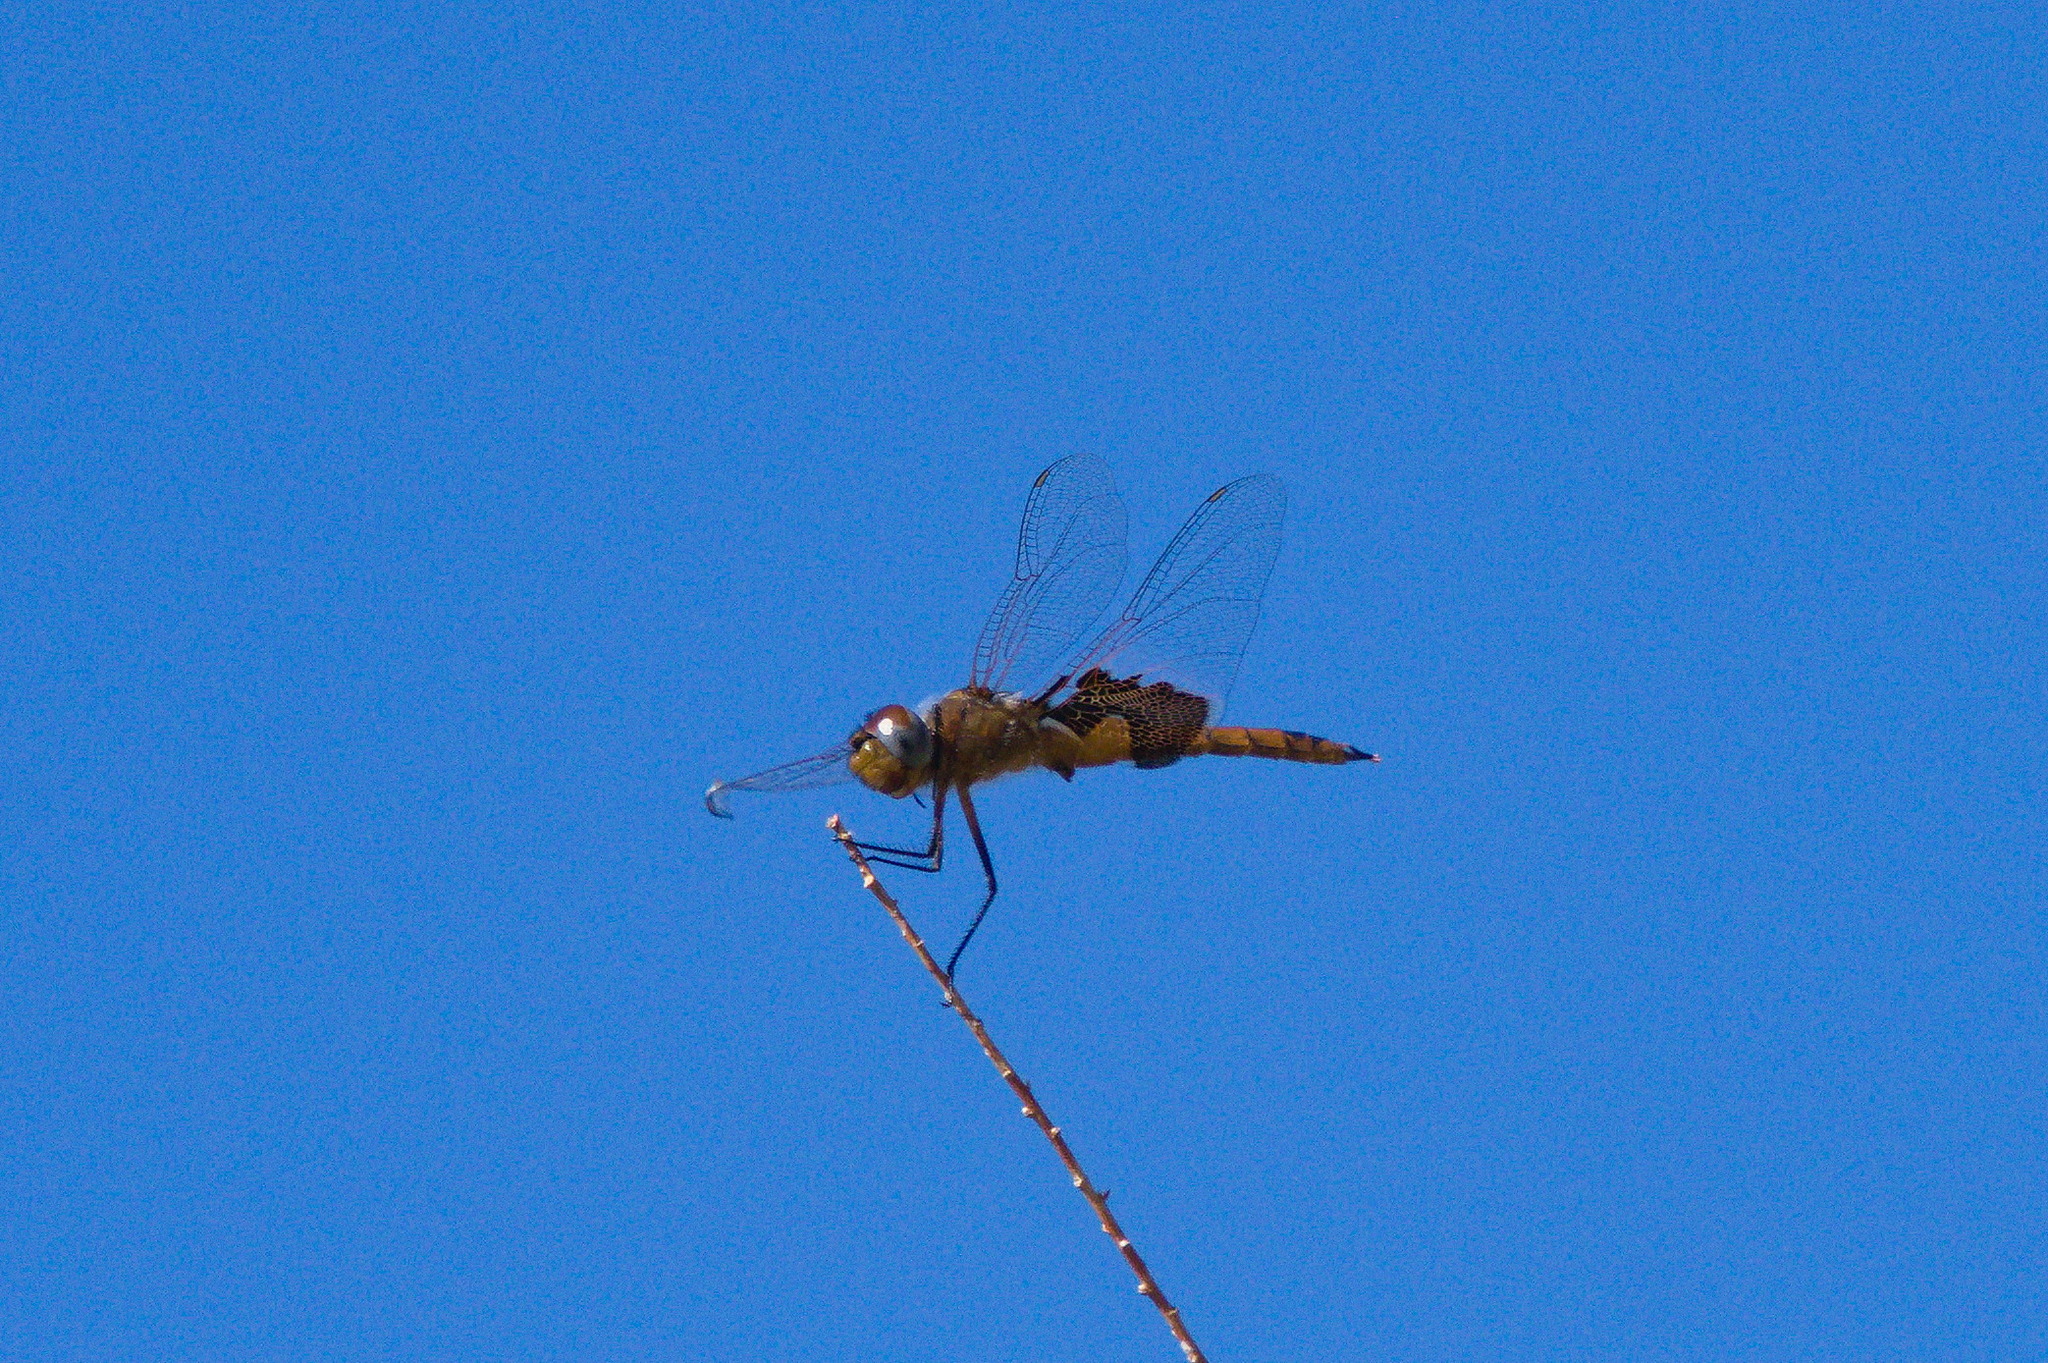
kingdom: Animalia
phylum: Arthropoda
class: Insecta
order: Odonata
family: Libellulidae
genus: Tramea
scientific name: Tramea onusta
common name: Red saddlebags
